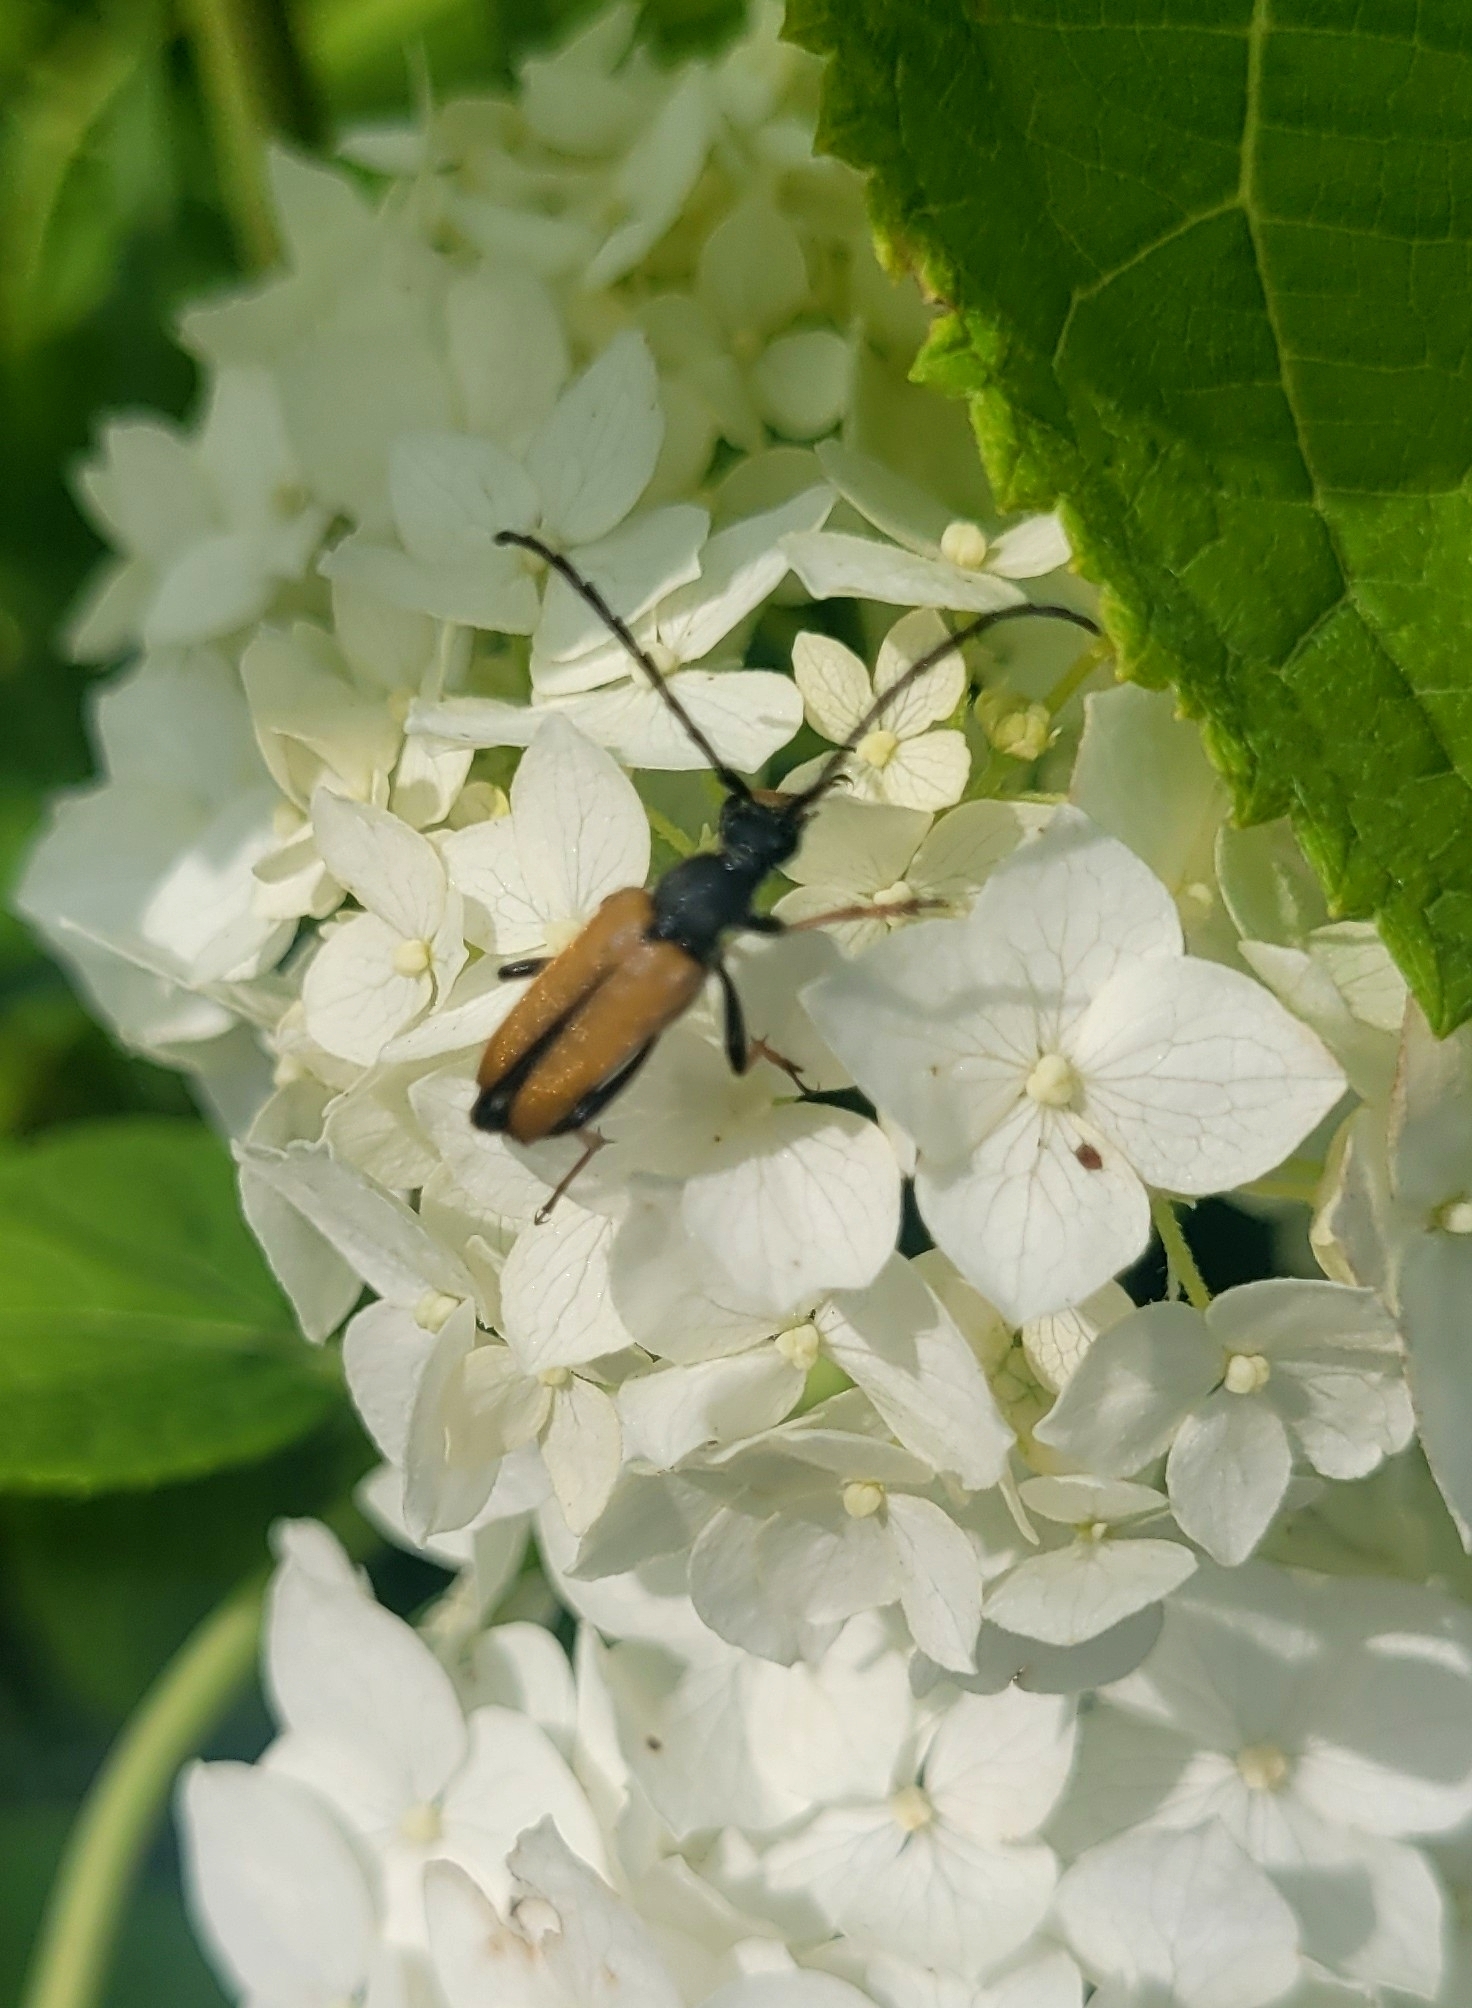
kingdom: Animalia
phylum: Arthropoda
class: Insecta
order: Coleoptera
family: Cerambycidae
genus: Stictoleptura
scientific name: Stictoleptura rubra
